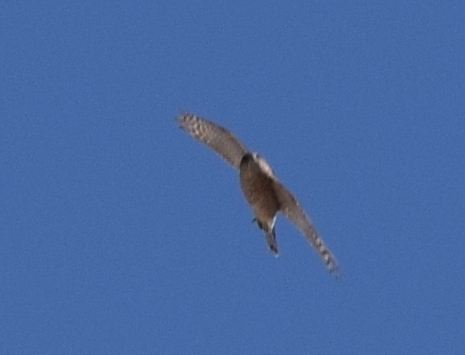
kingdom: Animalia
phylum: Chordata
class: Aves
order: Accipitriformes
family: Accipitridae
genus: Accipiter
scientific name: Accipiter
